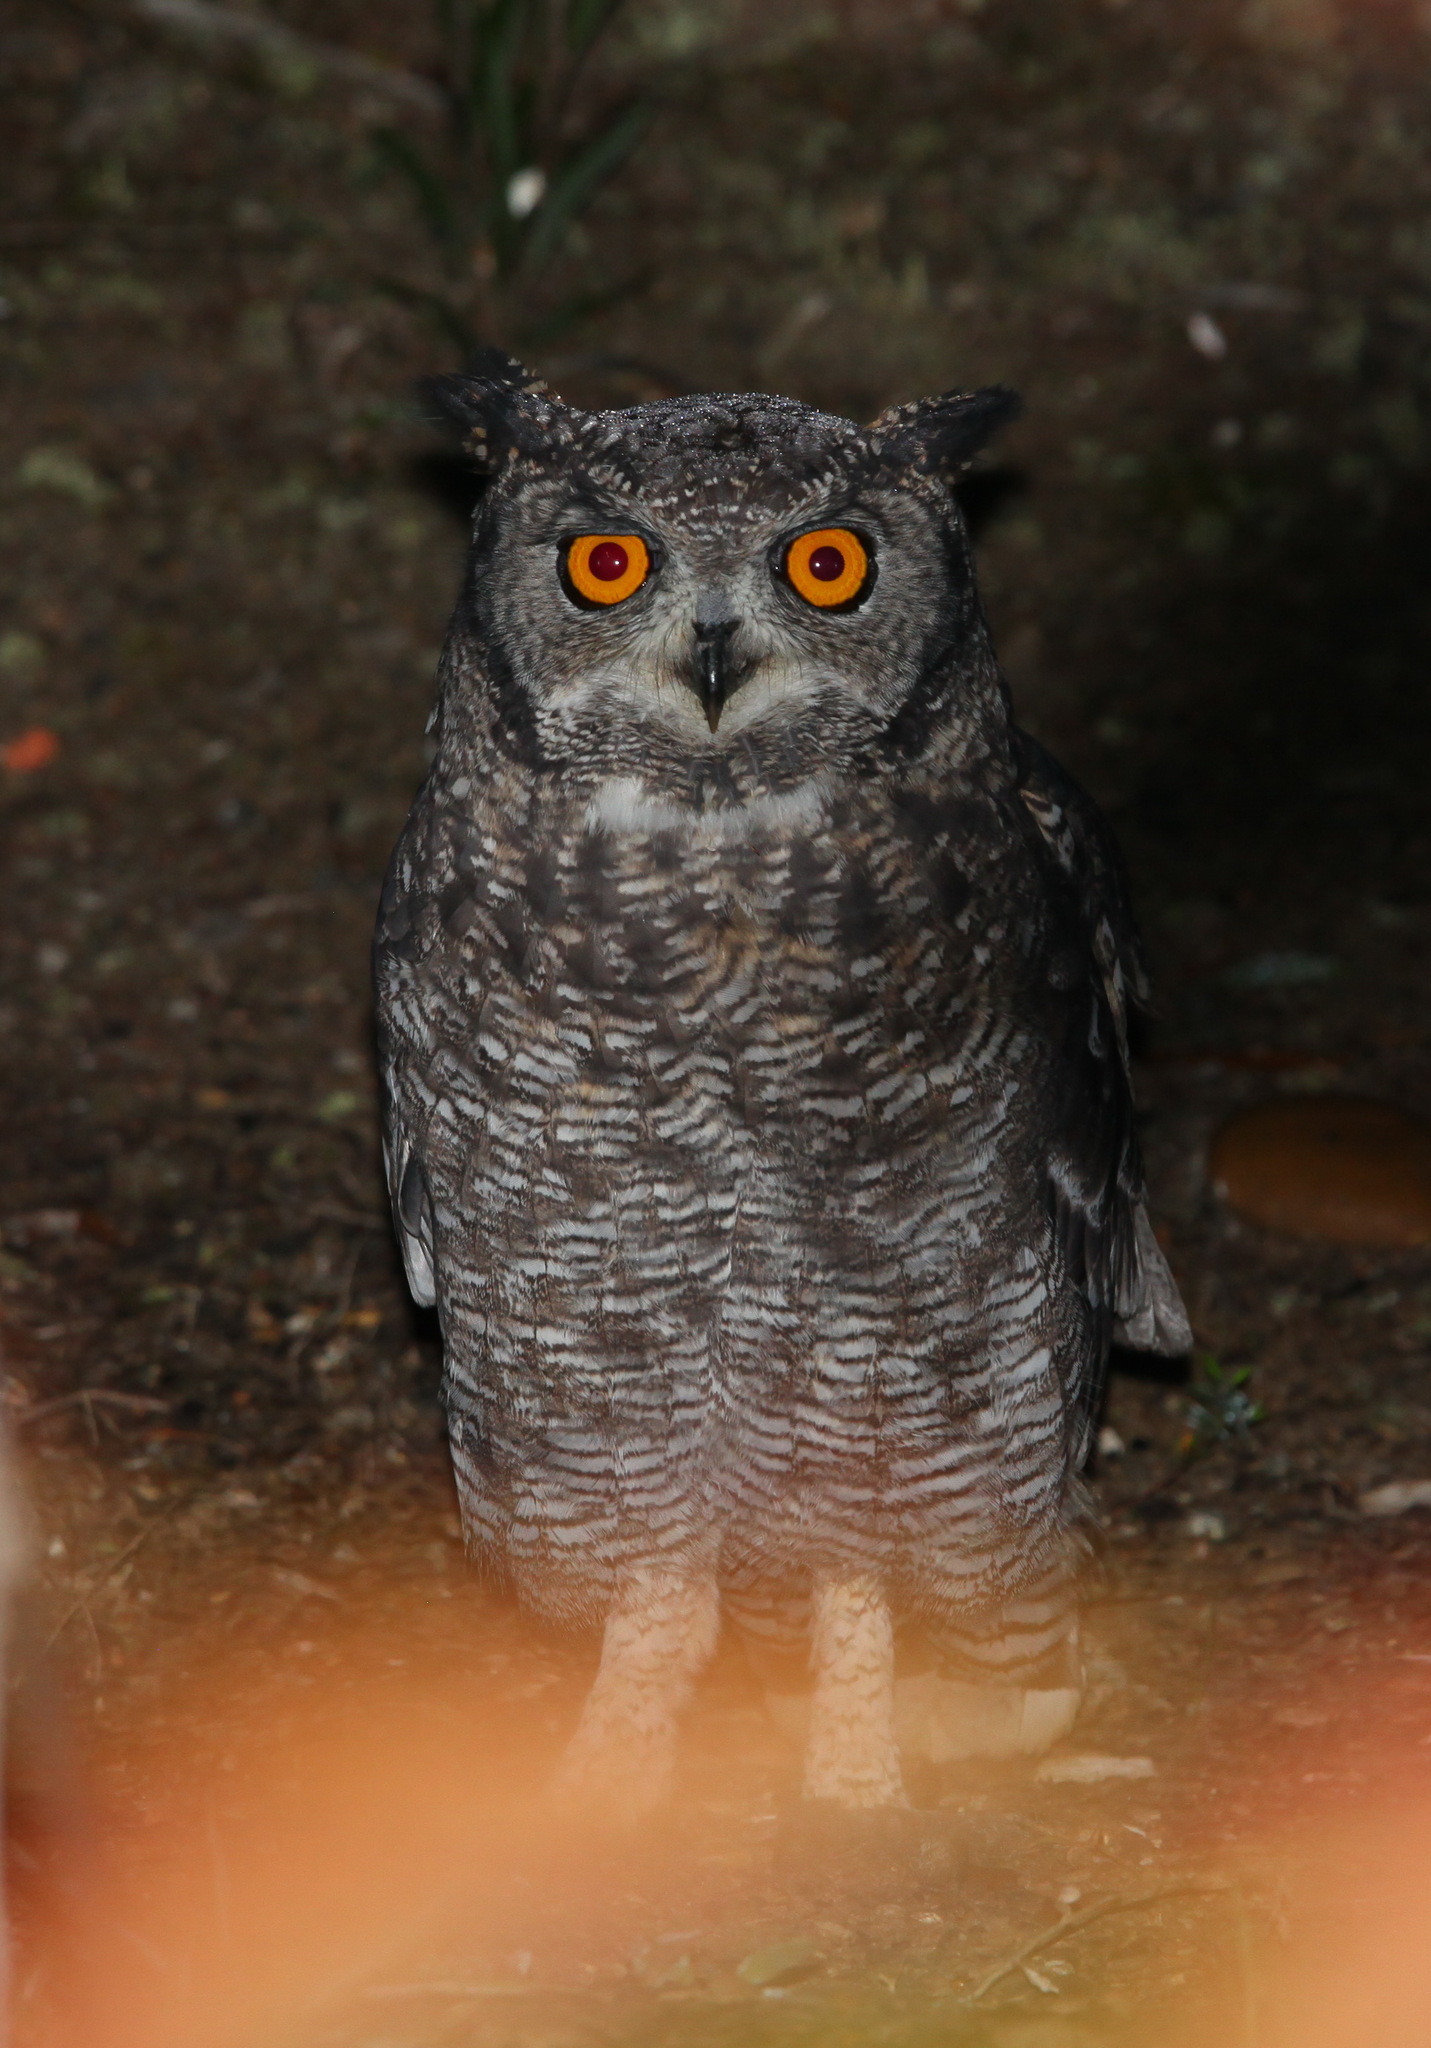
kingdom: Animalia
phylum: Chordata
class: Aves
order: Strigiformes
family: Strigidae
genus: Bubo
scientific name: Bubo africanus
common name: Spotted eagle-owl
